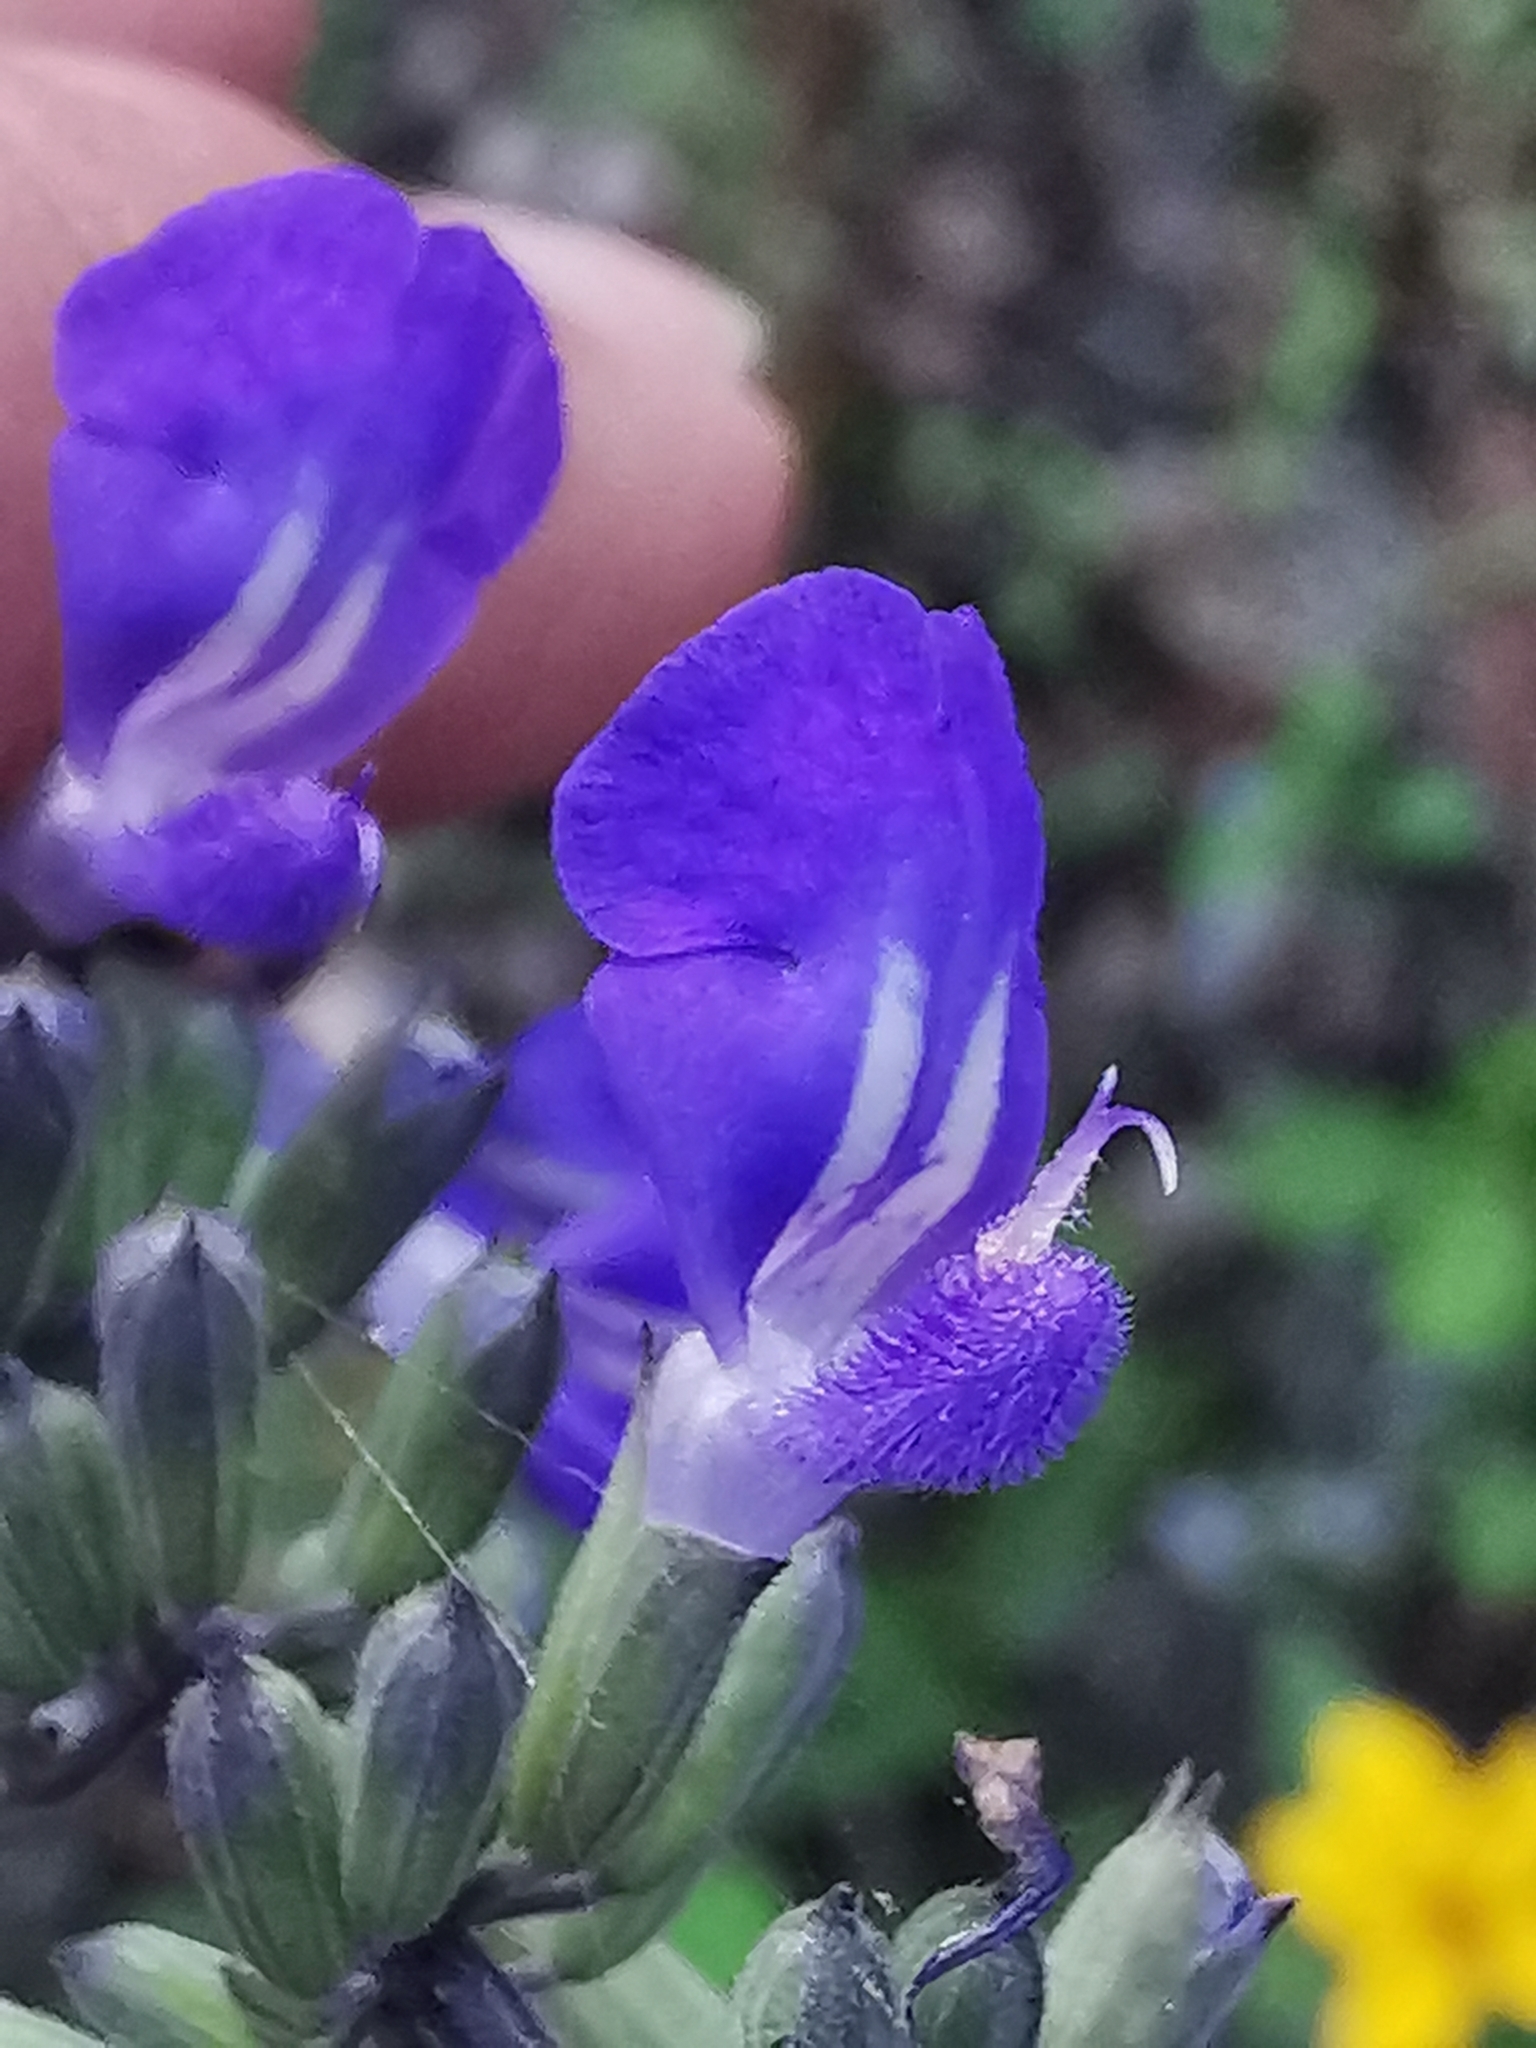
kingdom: Plantae
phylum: Tracheophyta
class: Magnoliopsida
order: Lamiales
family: Lamiaceae
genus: Salvia
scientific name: Salvia urolepis
